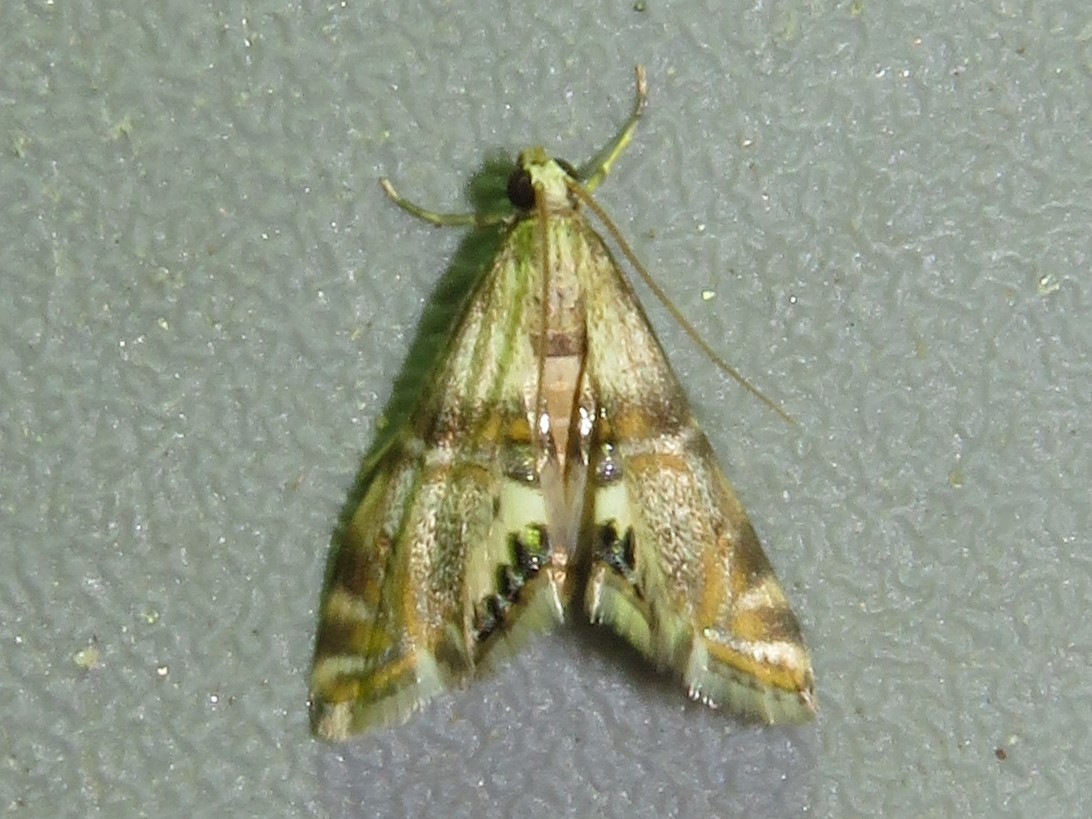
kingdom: Animalia
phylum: Arthropoda
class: Insecta
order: Lepidoptera
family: Crambidae
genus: Petrophila
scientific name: Petrophila bifascialis
